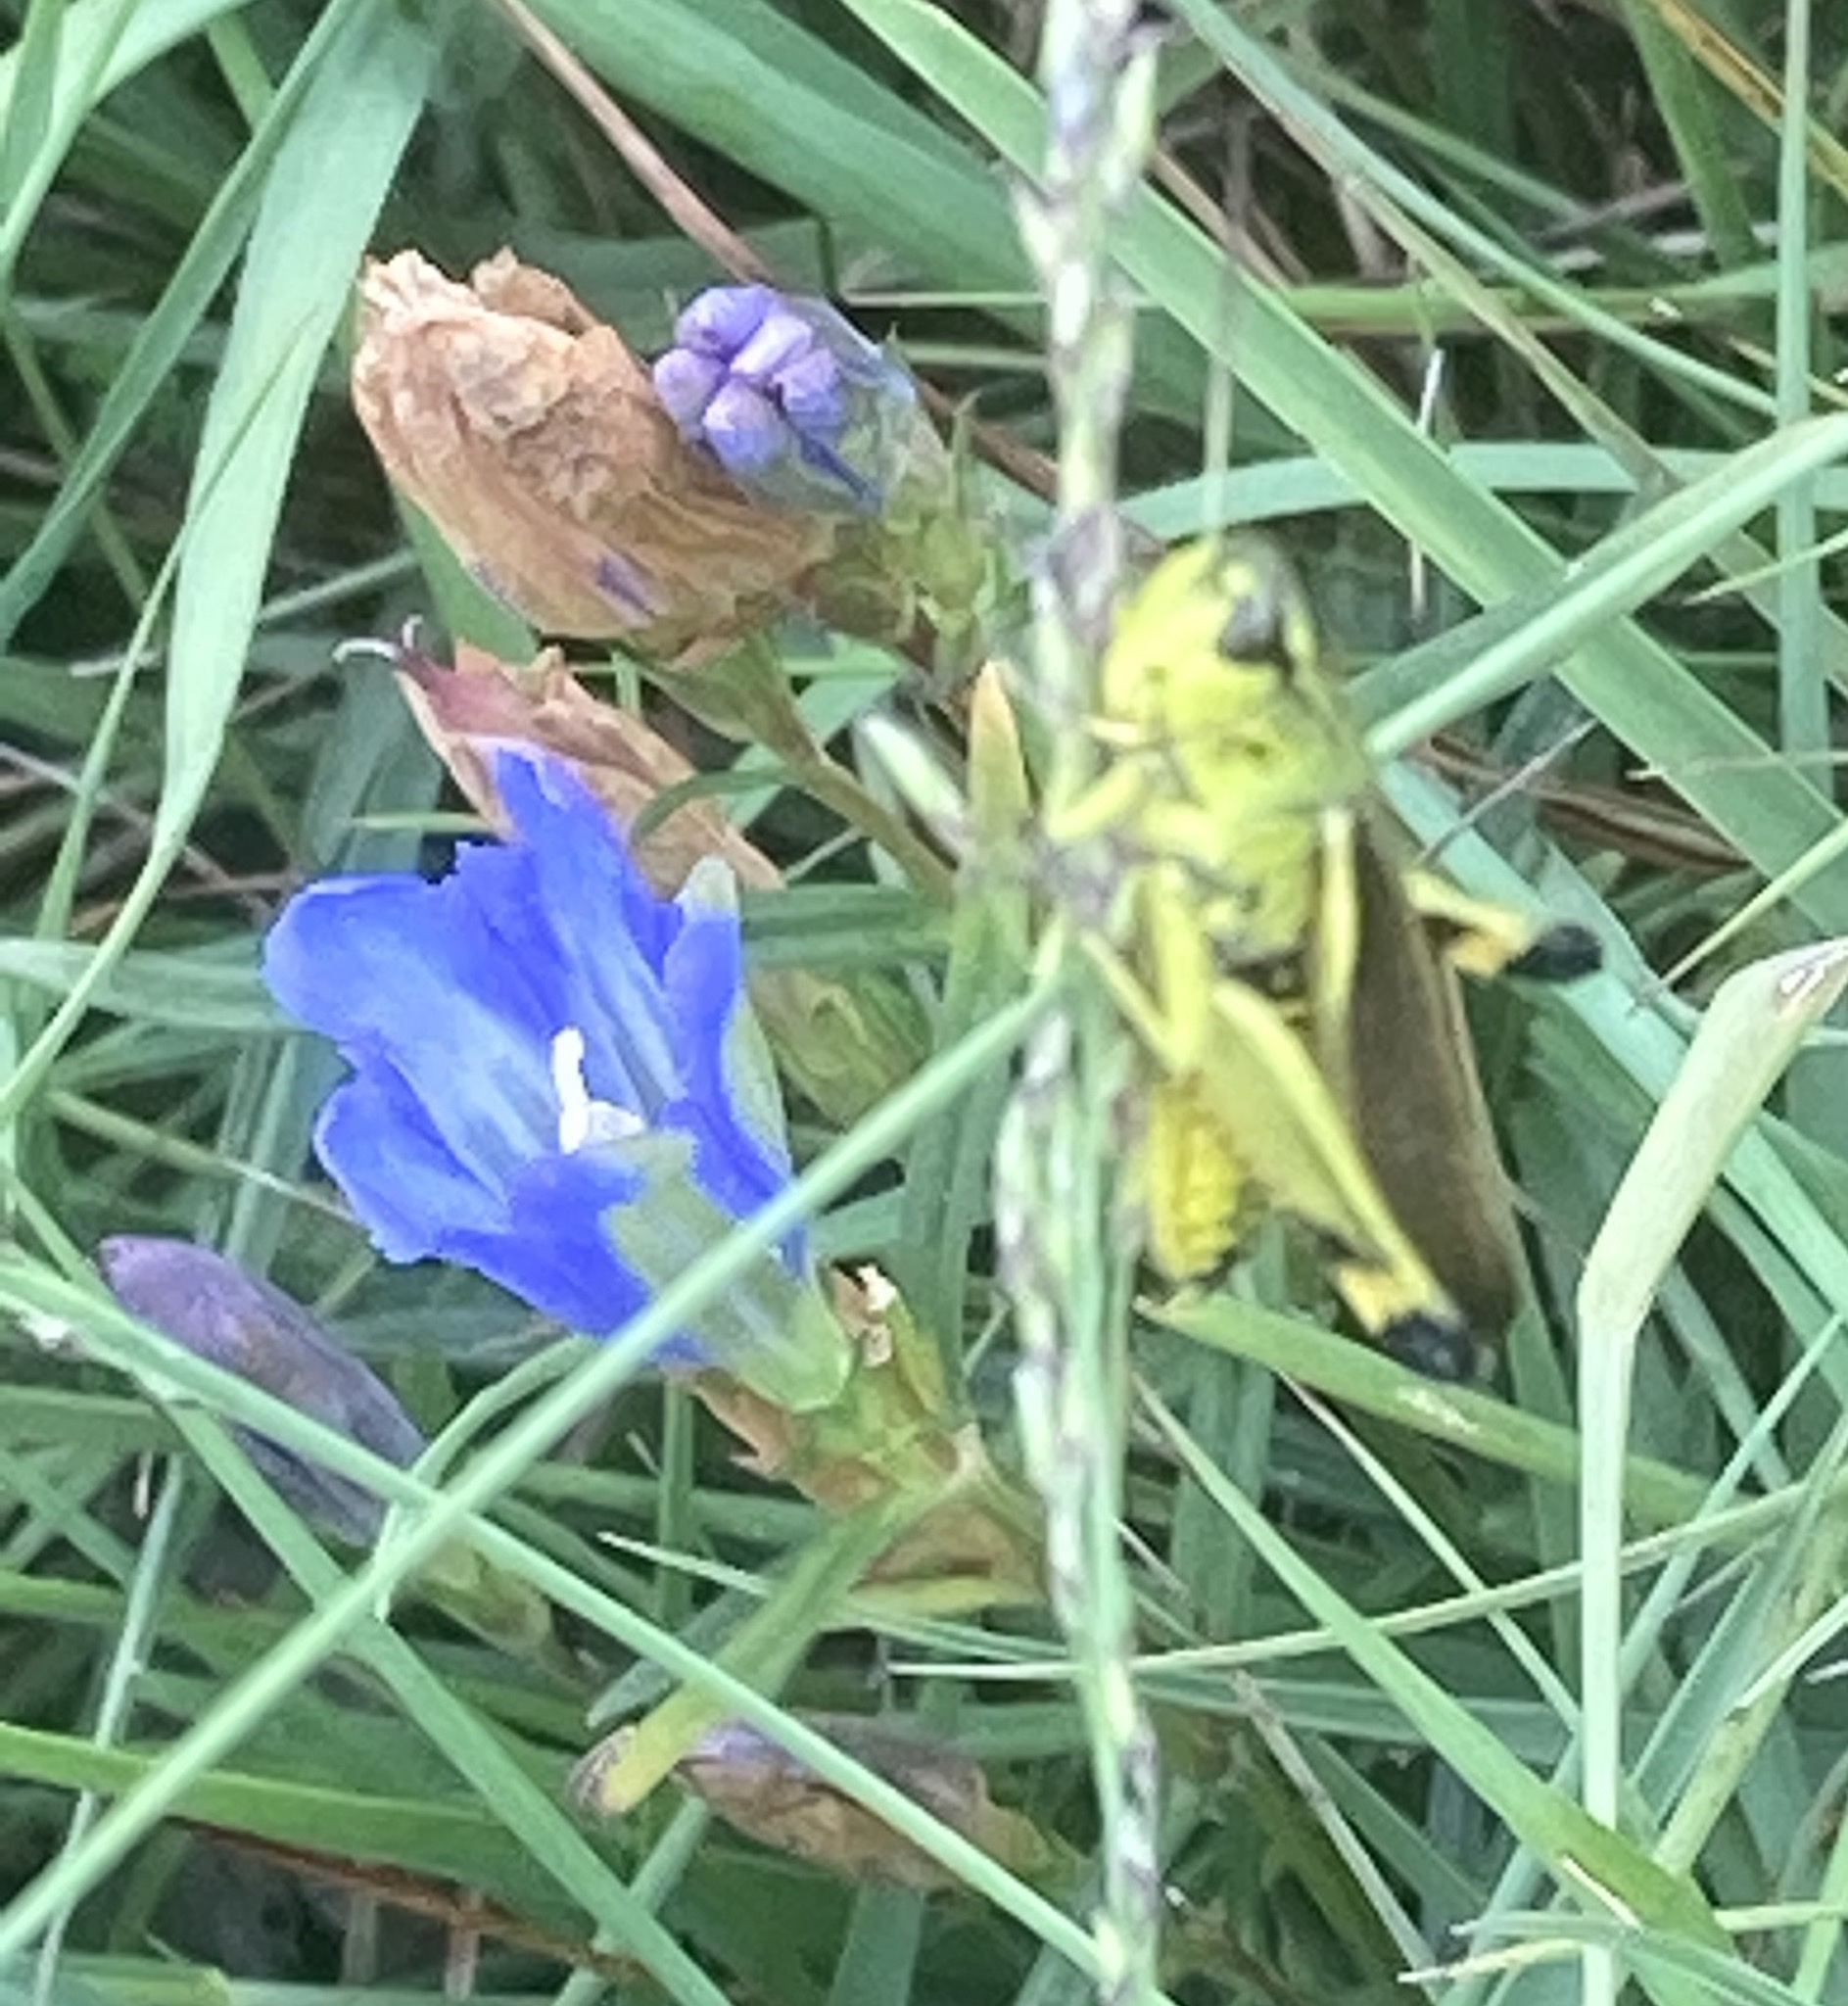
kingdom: Animalia
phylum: Arthropoda
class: Insecta
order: Orthoptera
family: Acrididae
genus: Stethophyma
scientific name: Stethophyma grossum
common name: Large marsh grasshopper
